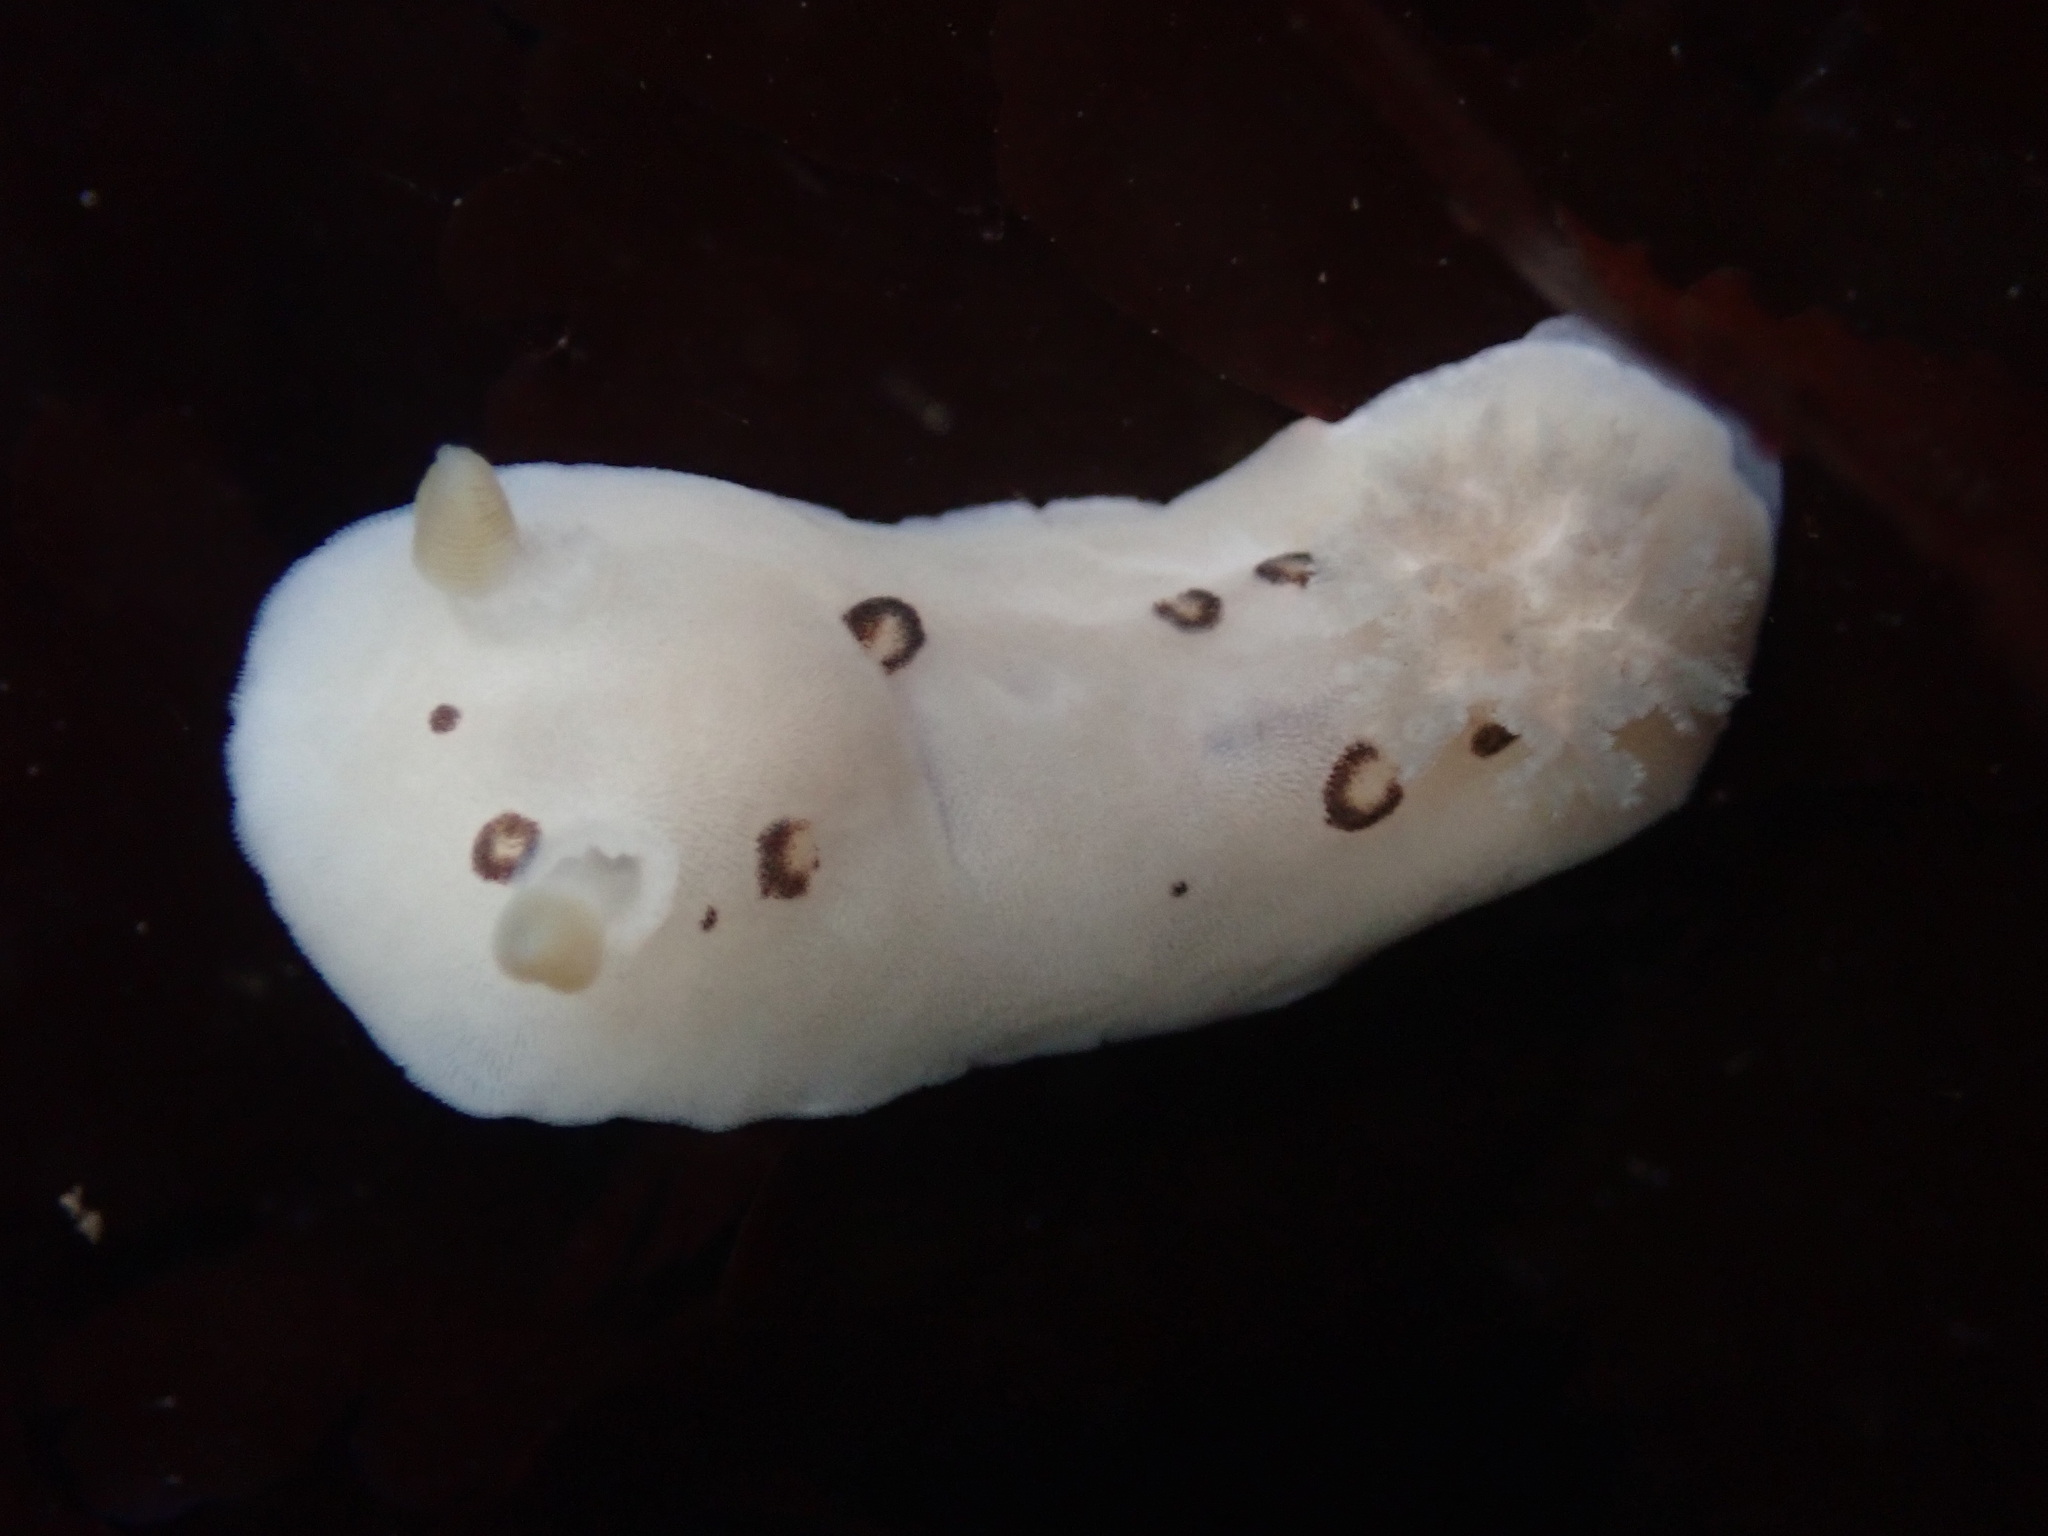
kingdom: Animalia
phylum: Mollusca
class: Gastropoda
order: Nudibranchia
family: Discodorididae
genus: Diaulula
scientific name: Diaulula sandiegensis
